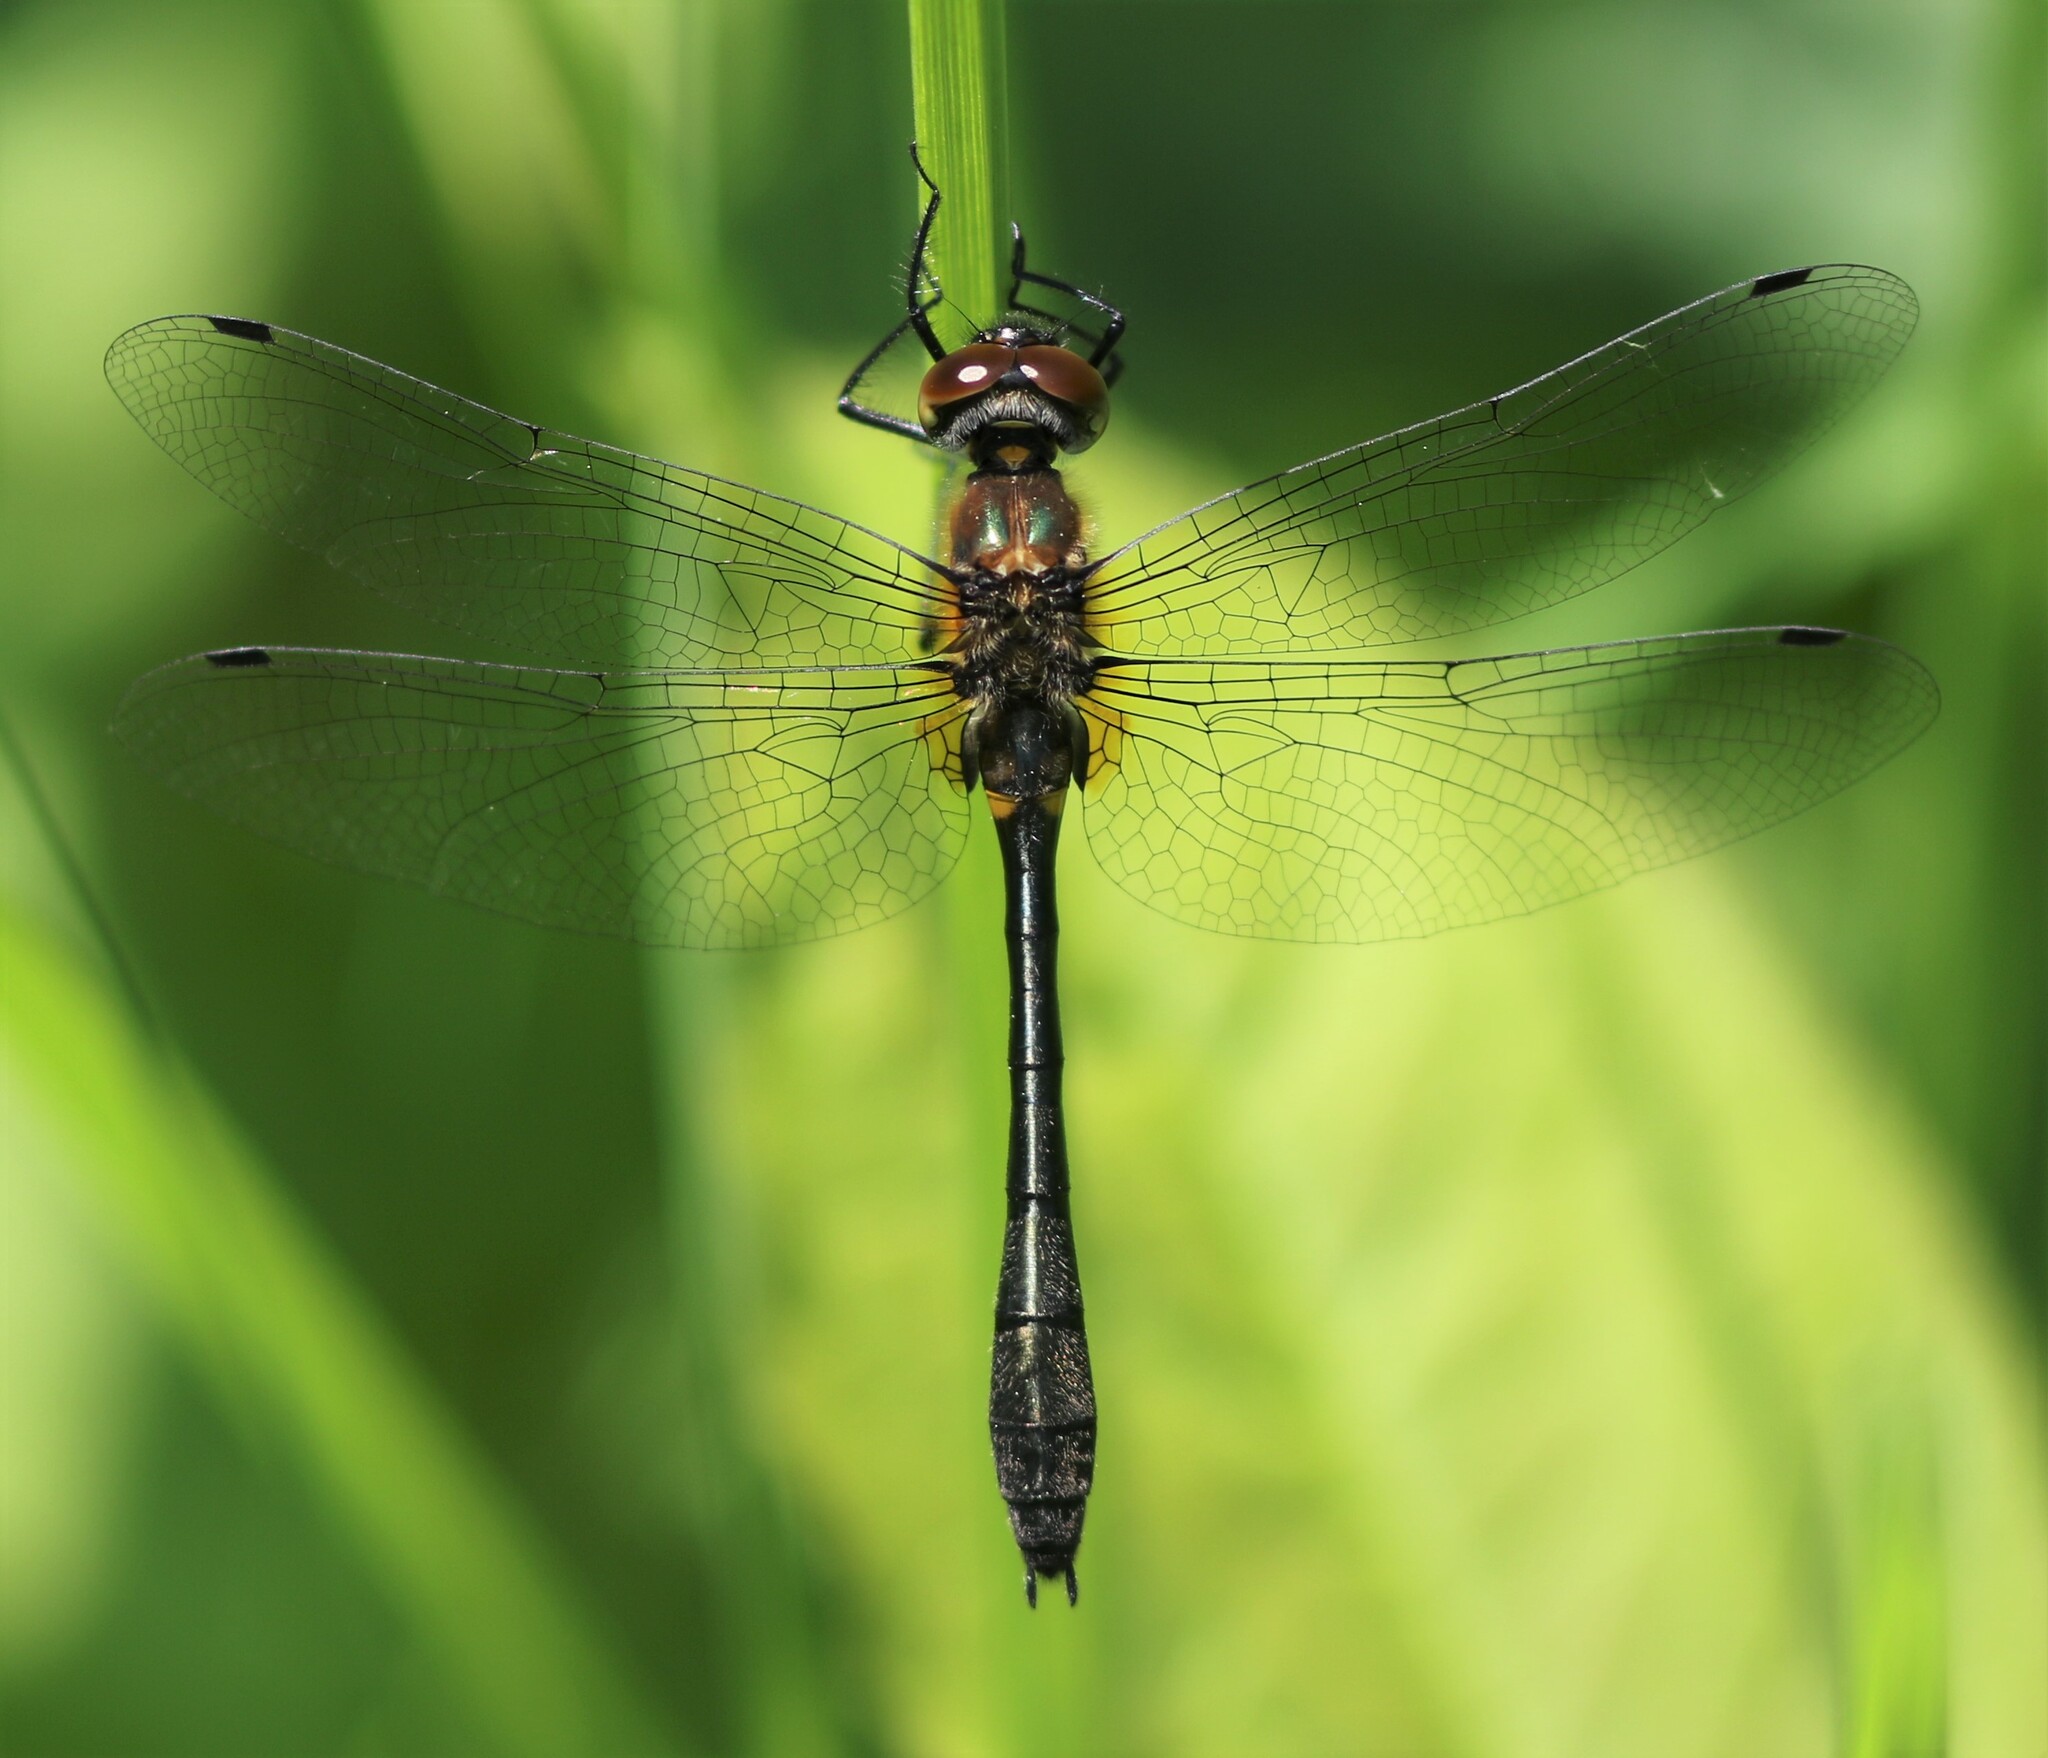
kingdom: Animalia
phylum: Arthropoda
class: Insecta
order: Odonata
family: Corduliidae
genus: Dorocordulia
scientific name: Dorocordulia libera
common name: Racket-tailed emerald
